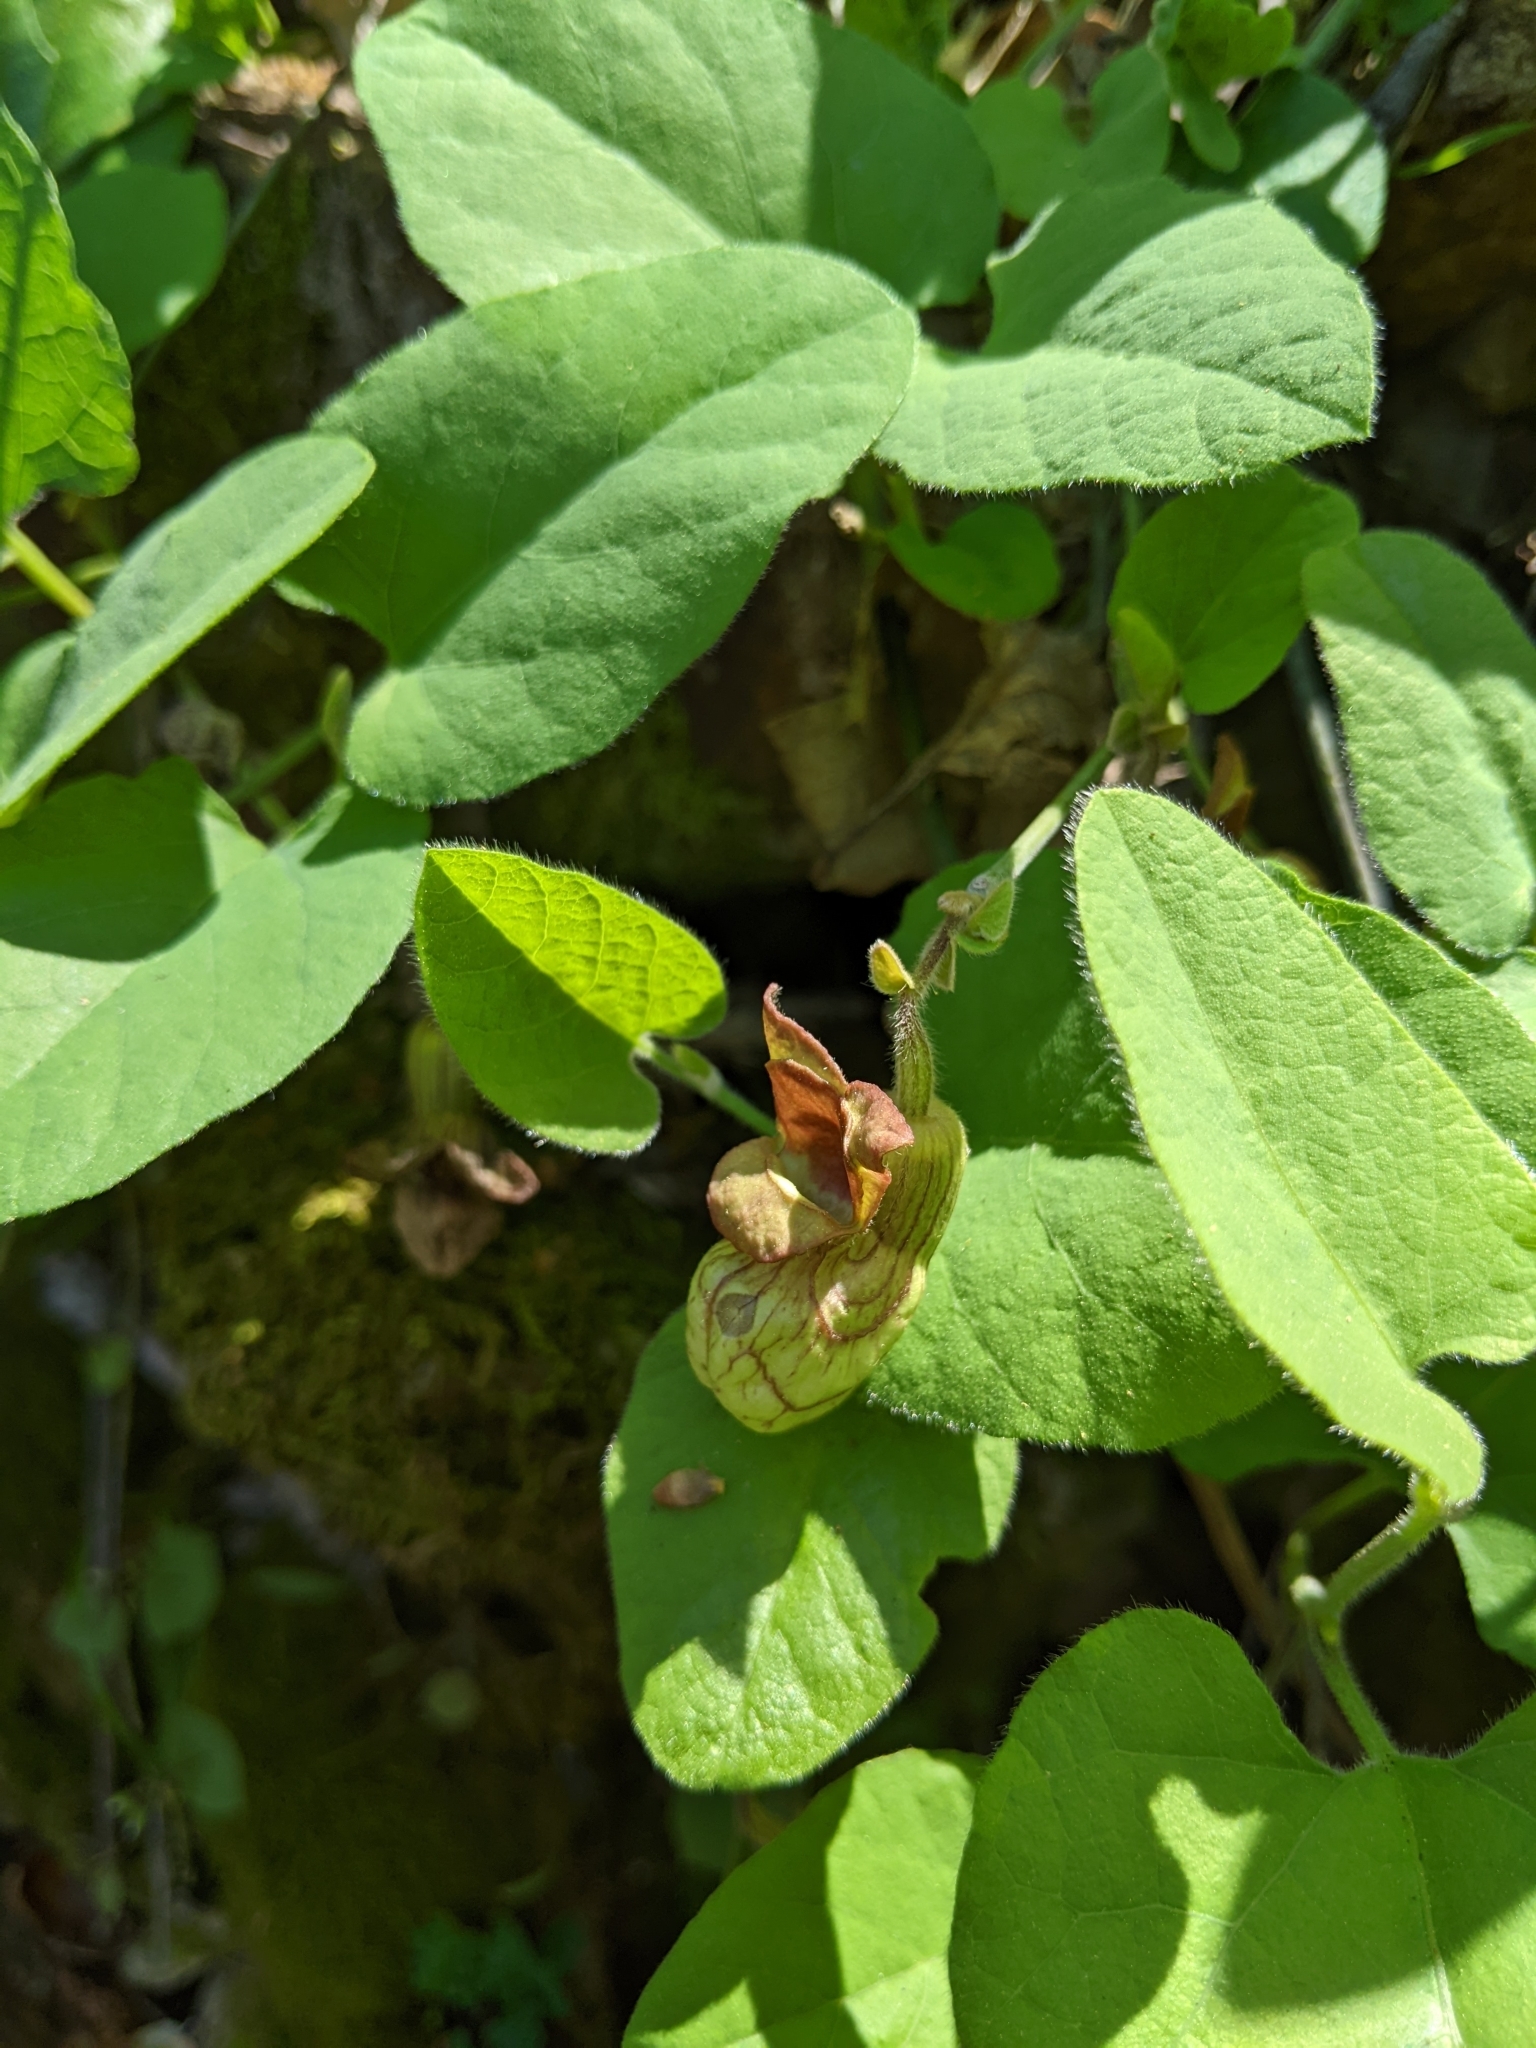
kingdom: Plantae
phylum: Tracheophyta
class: Magnoliopsida
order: Piperales
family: Aristolochiaceae
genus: Isotrema
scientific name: Isotrema californicum
